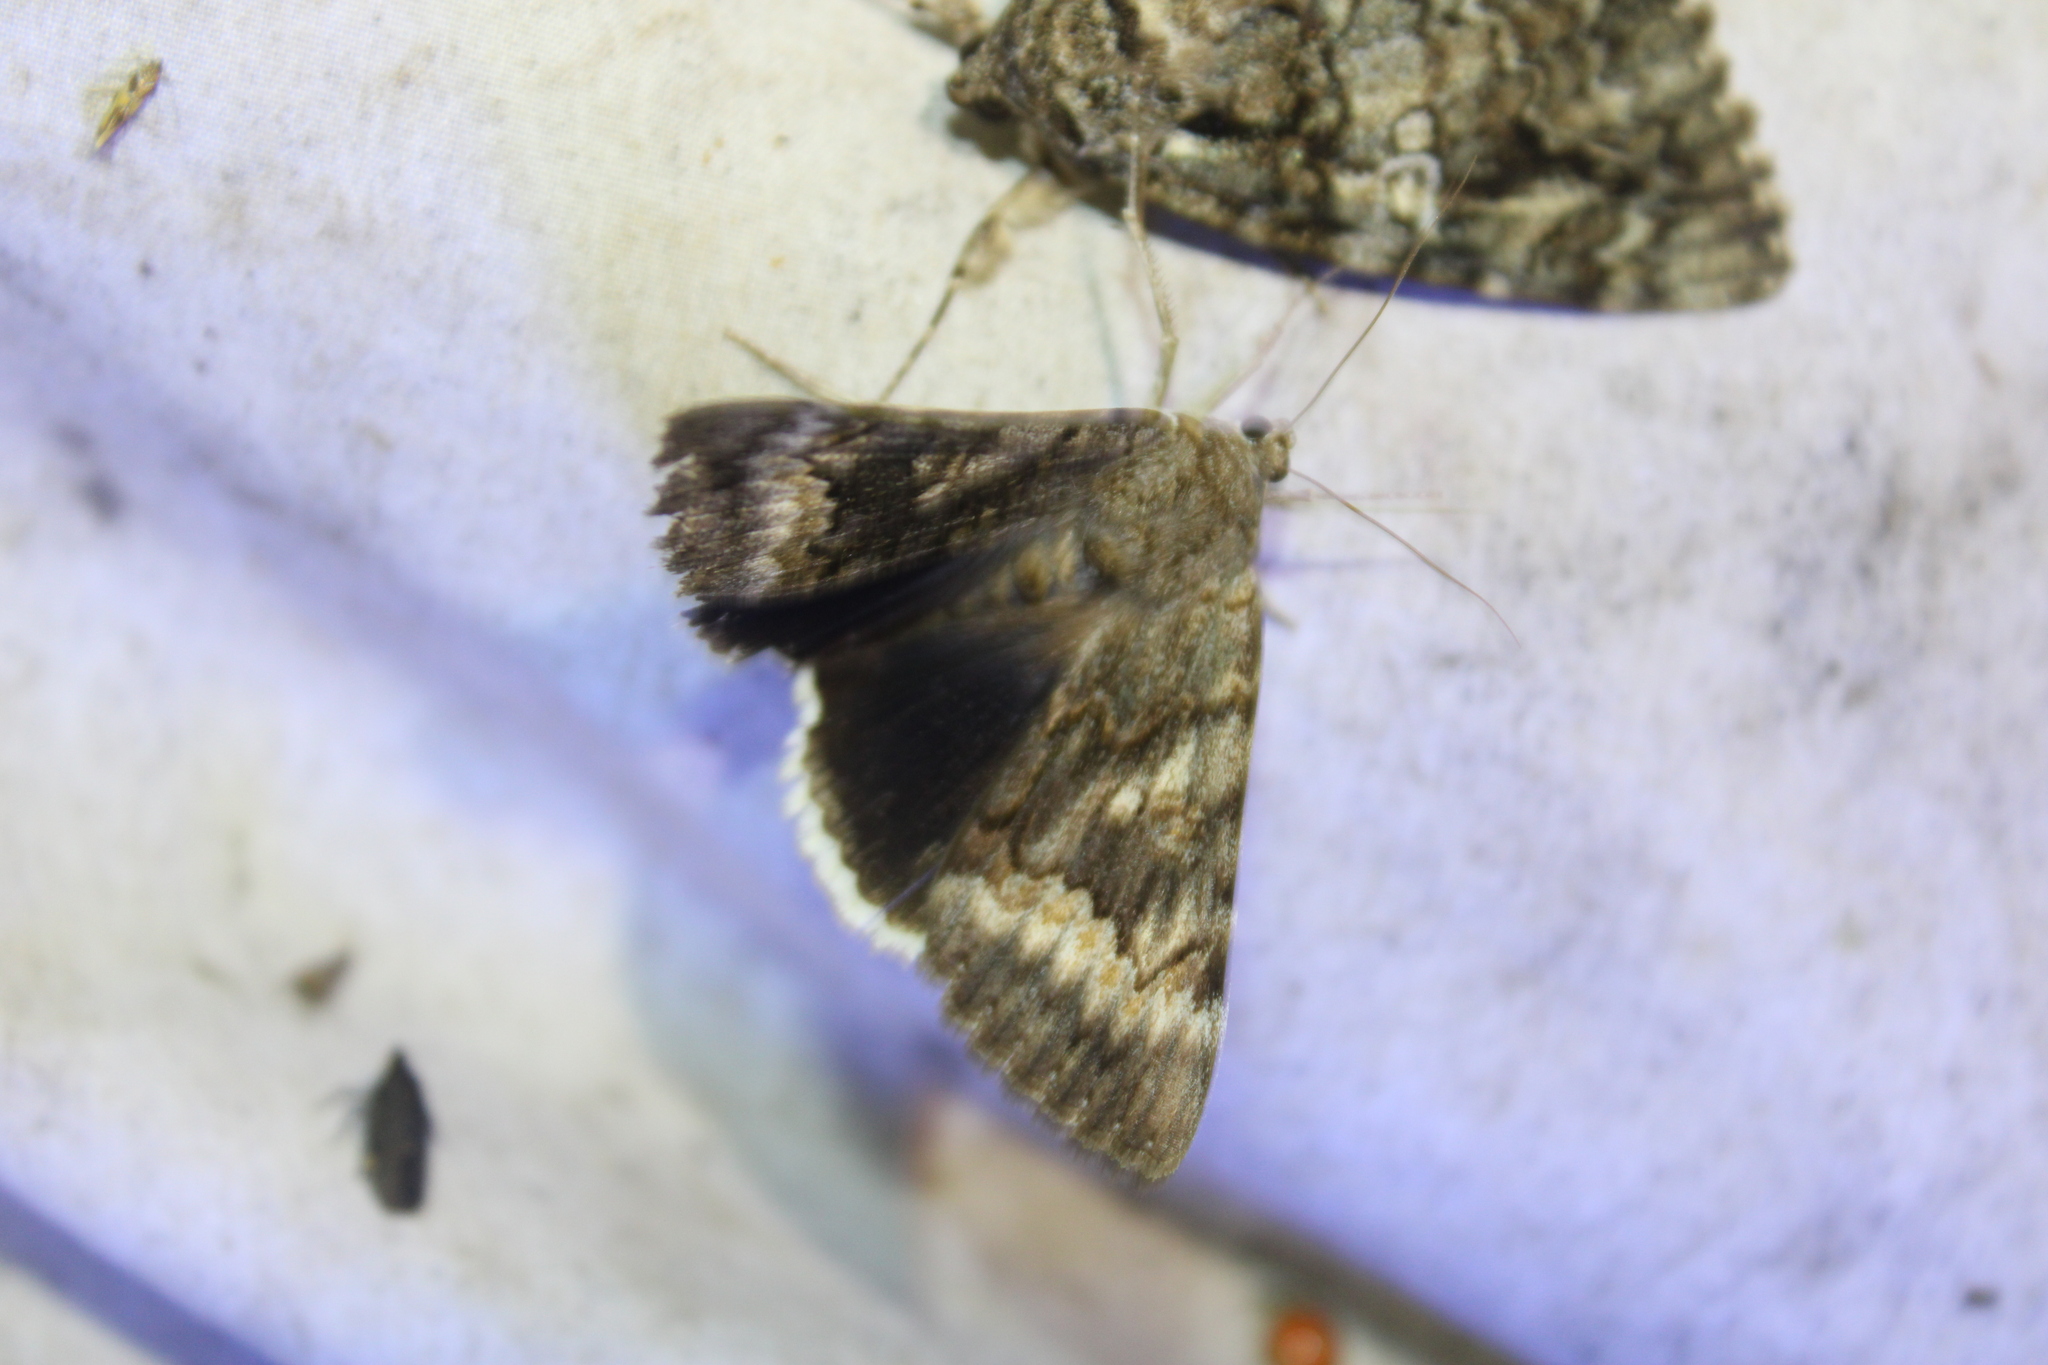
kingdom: Animalia
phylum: Arthropoda
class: Insecta
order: Lepidoptera
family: Erebidae
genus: Catocala
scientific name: Catocala epione
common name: Epione underwing
